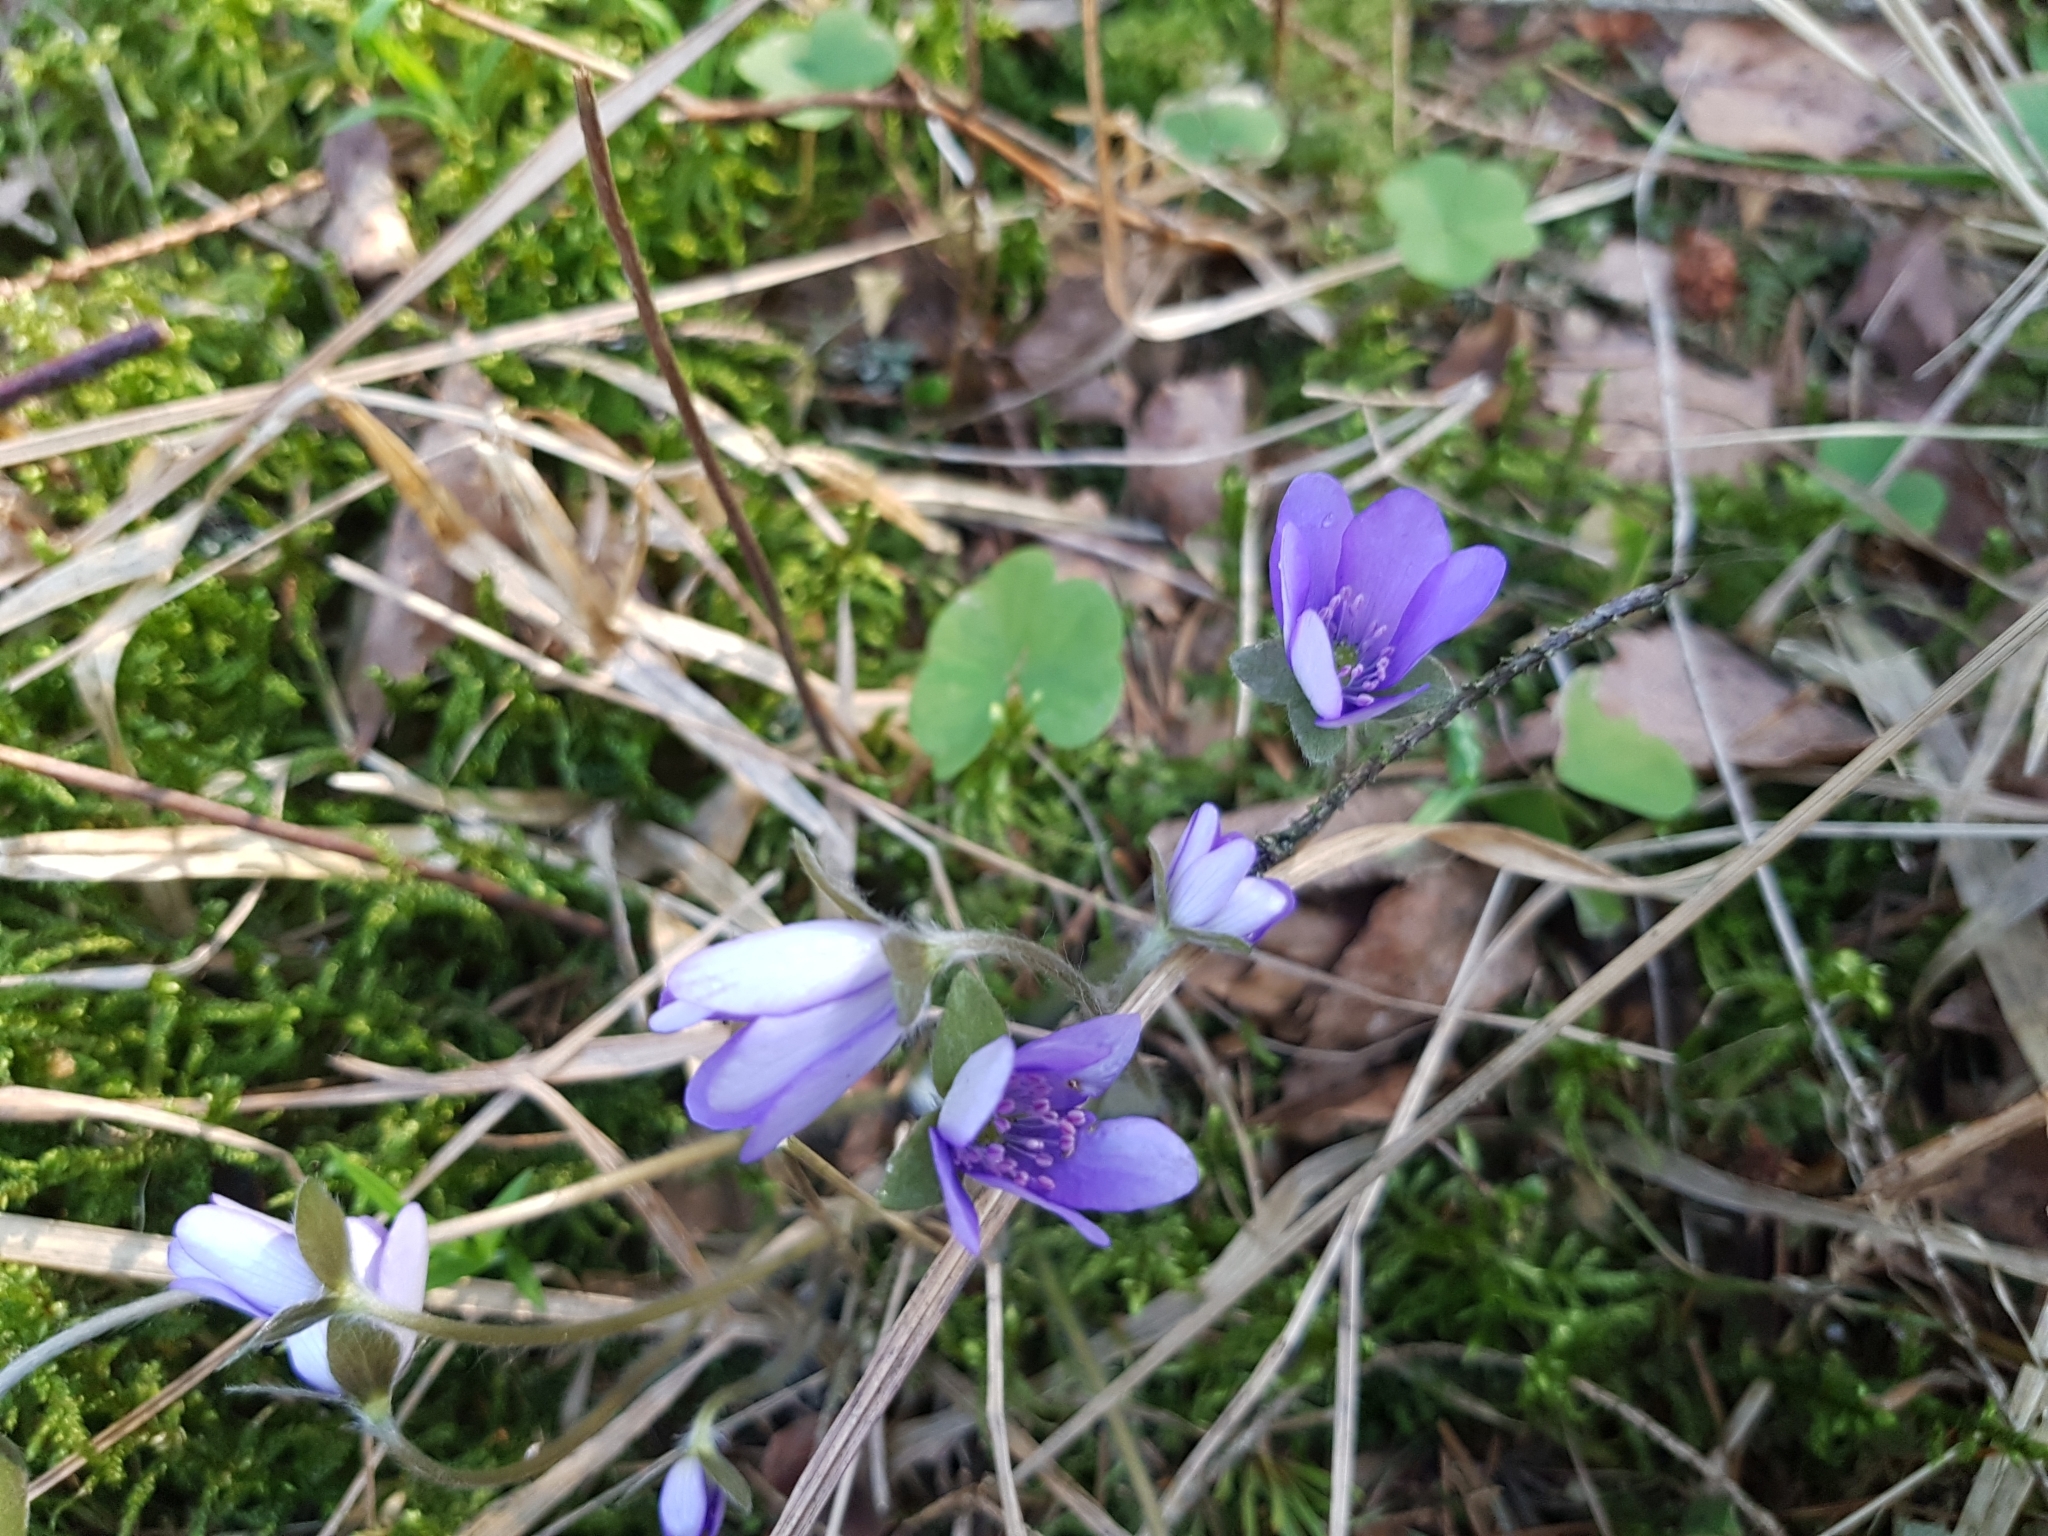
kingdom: Plantae
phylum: Tracheophyta
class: Magnoliopsida
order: Ranunculales
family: Ranunculaceae
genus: Hepatica
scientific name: Hepatica nobilis
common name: Liverleaf
